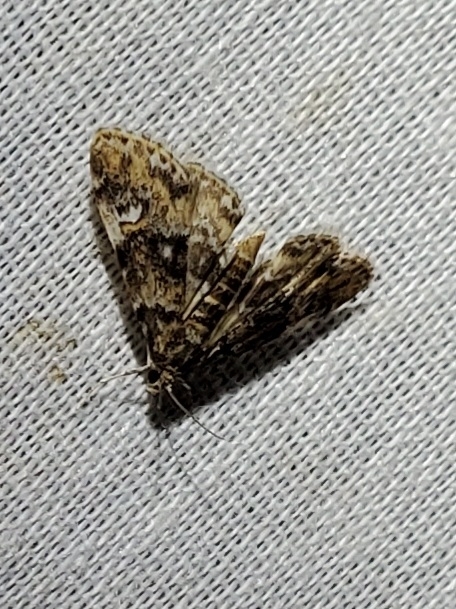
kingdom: Animalia
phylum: Arthropoda
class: Insecta
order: Lepidoptera
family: Crambidae
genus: Elophila
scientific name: Elophila obliteralis
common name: Waterlily leafcutter moth
